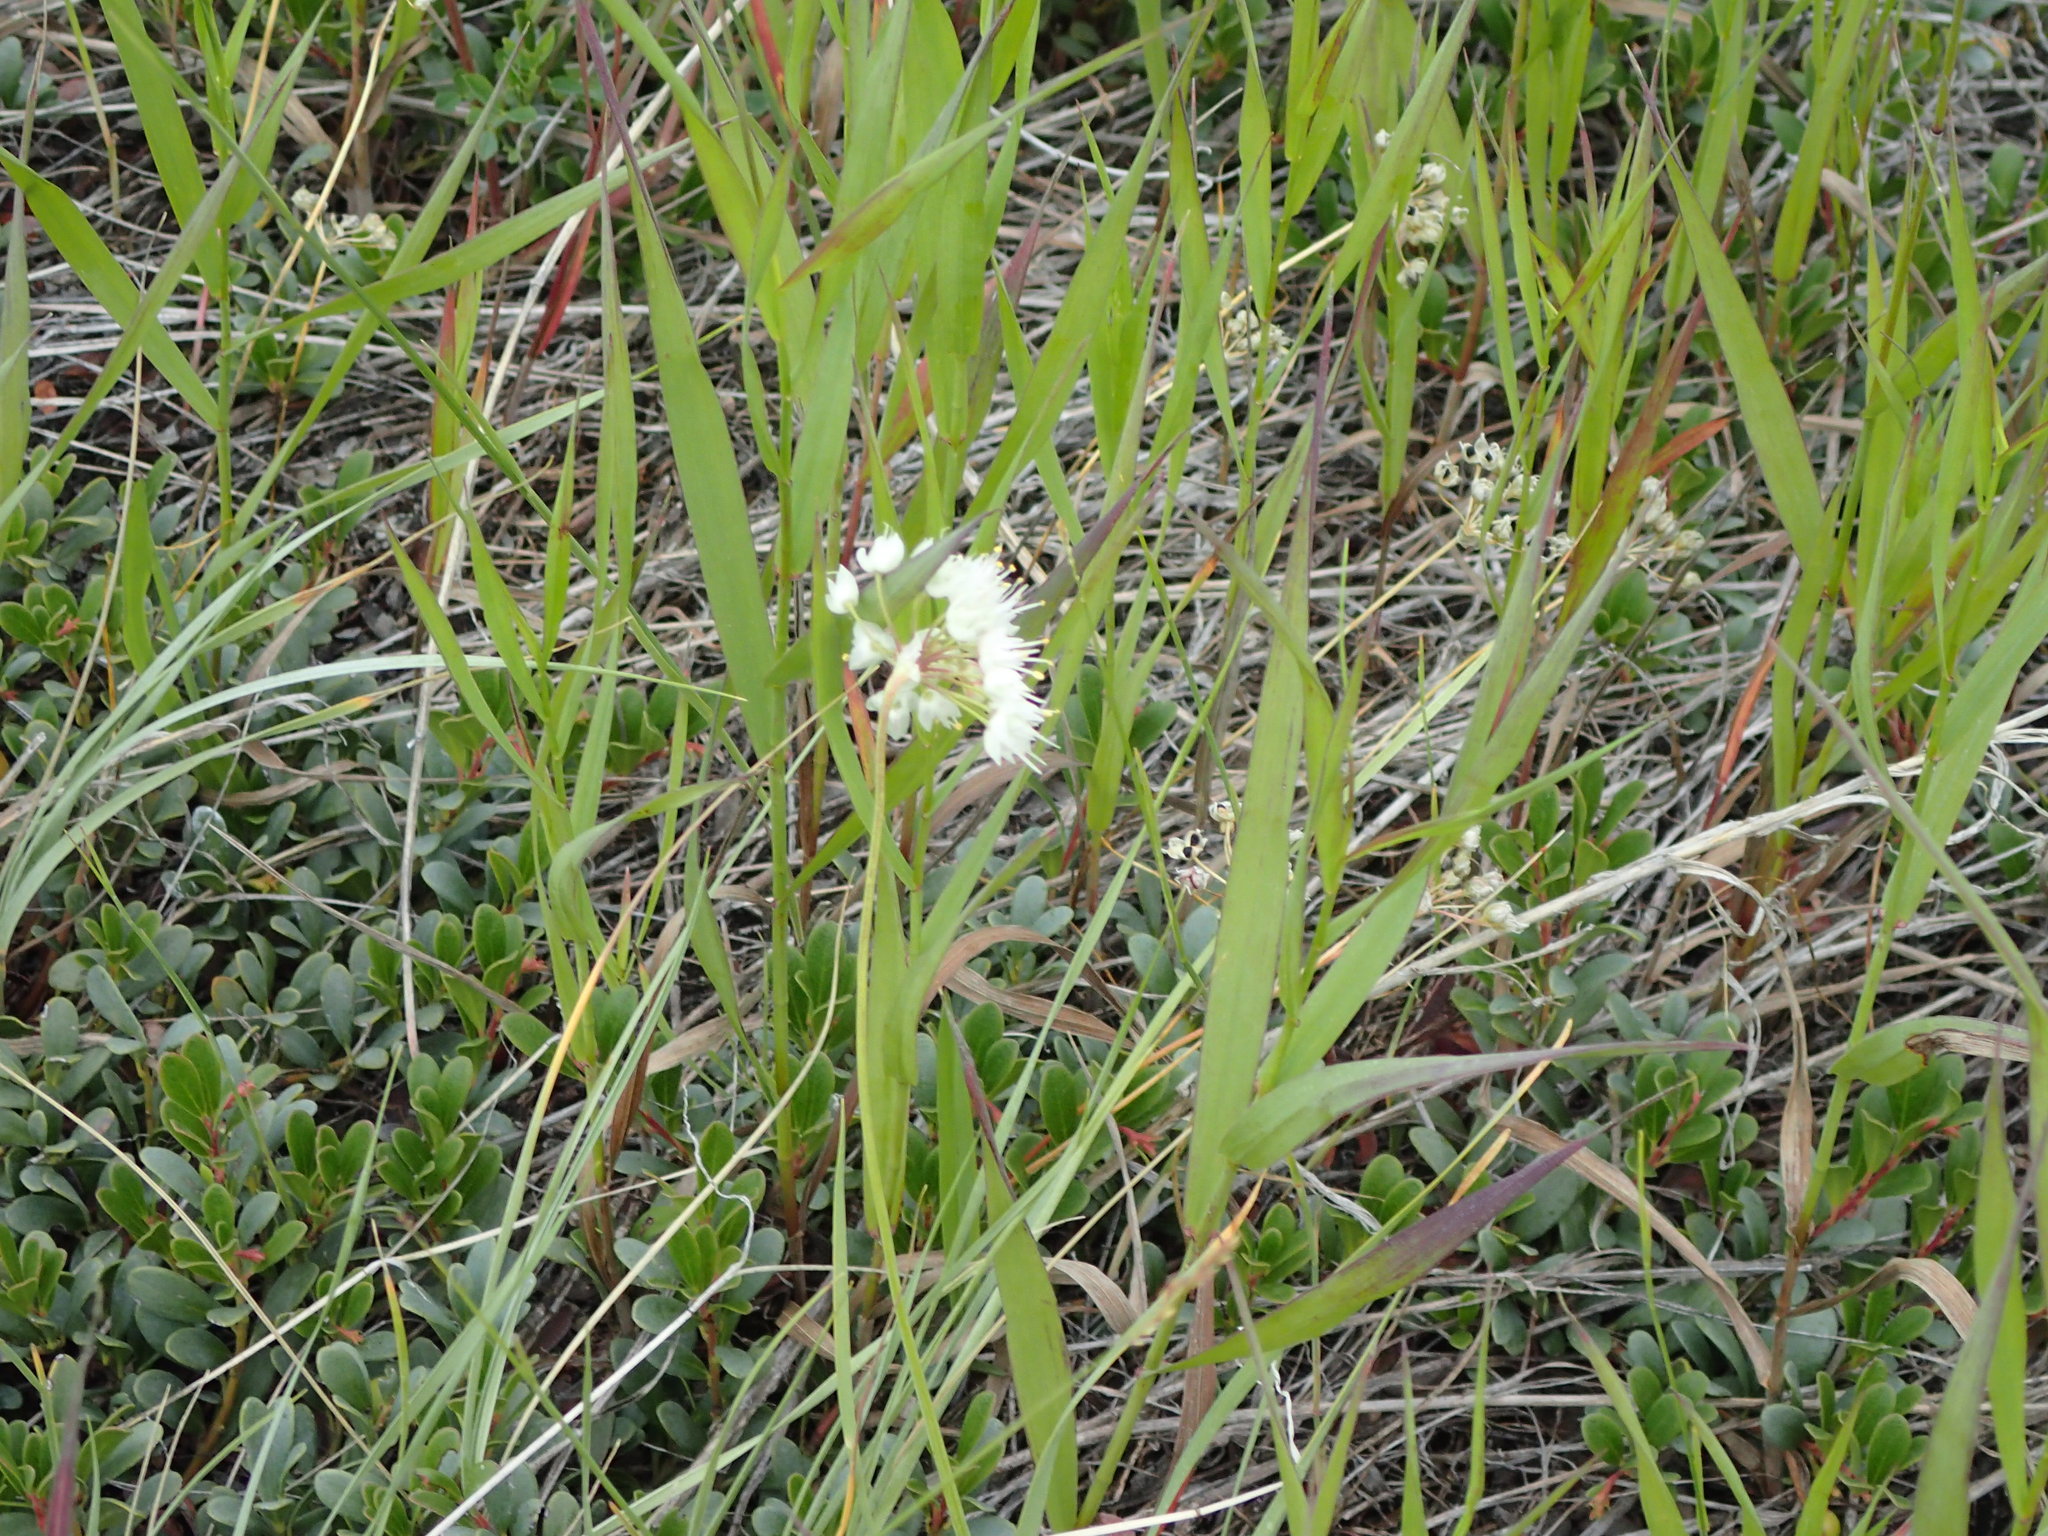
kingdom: Plantae
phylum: Tracheophyta
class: Liliopsida
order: Asparagales
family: Amaryllidaceae
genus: Allium
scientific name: Allium cernuum
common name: Nodding onion
